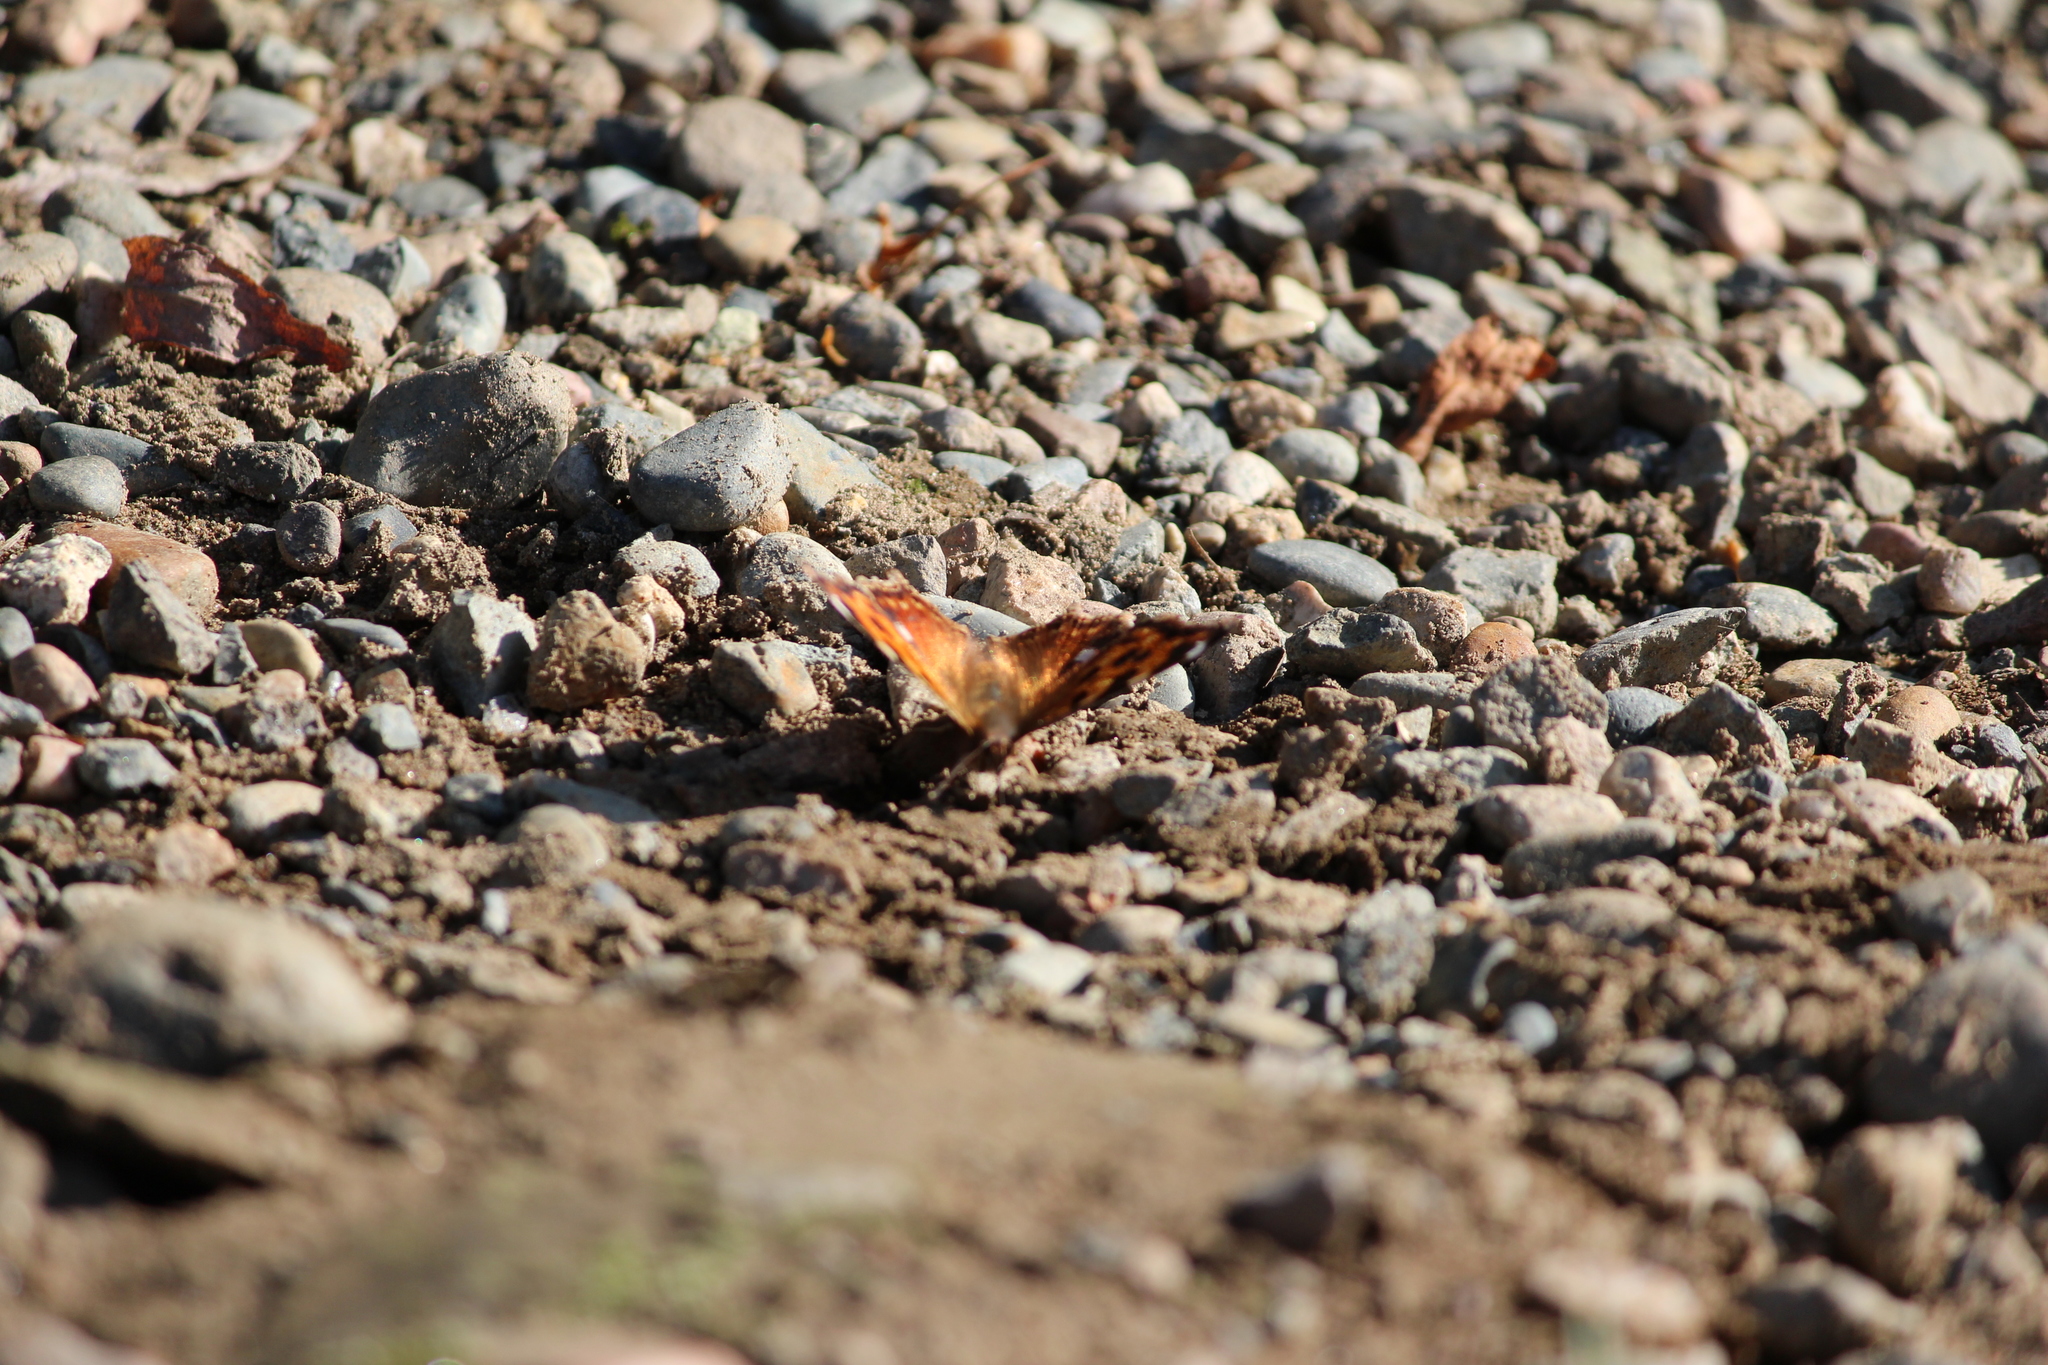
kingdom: Animalia
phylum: Arthropoda
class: Insecta
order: Lepidoptera
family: Nymphalidae
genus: Polygonia
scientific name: Polygonia vaualbum
